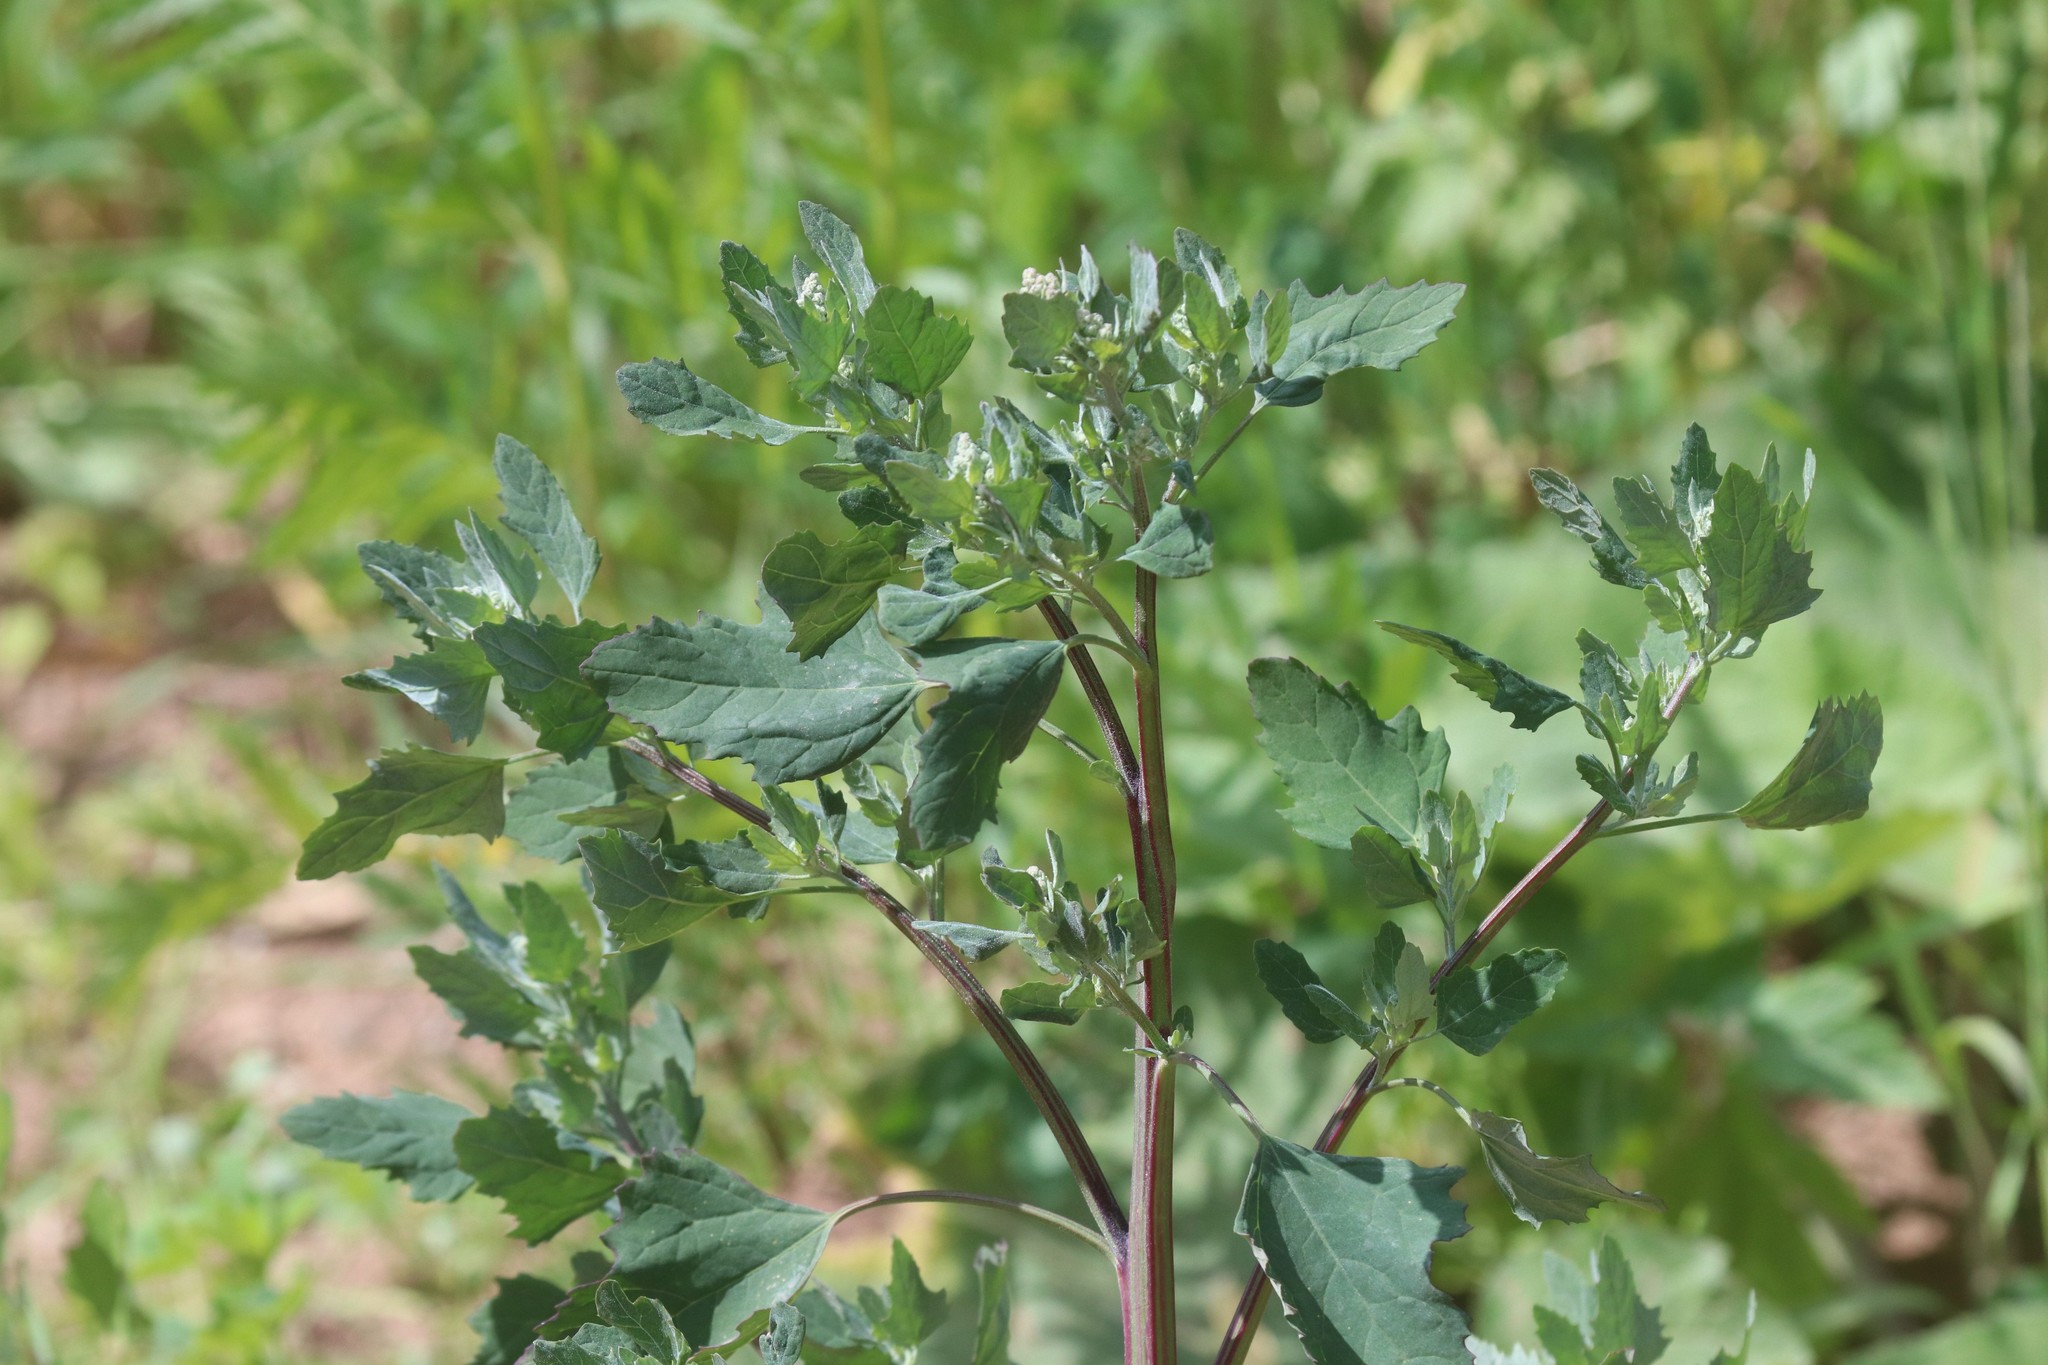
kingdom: Plantae
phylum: Tracheophyta
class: Magnoliopsida
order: Caryophyllales
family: Amaranthaceae
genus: Chenopodium
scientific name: Chenopodium album
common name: Fat-hen
